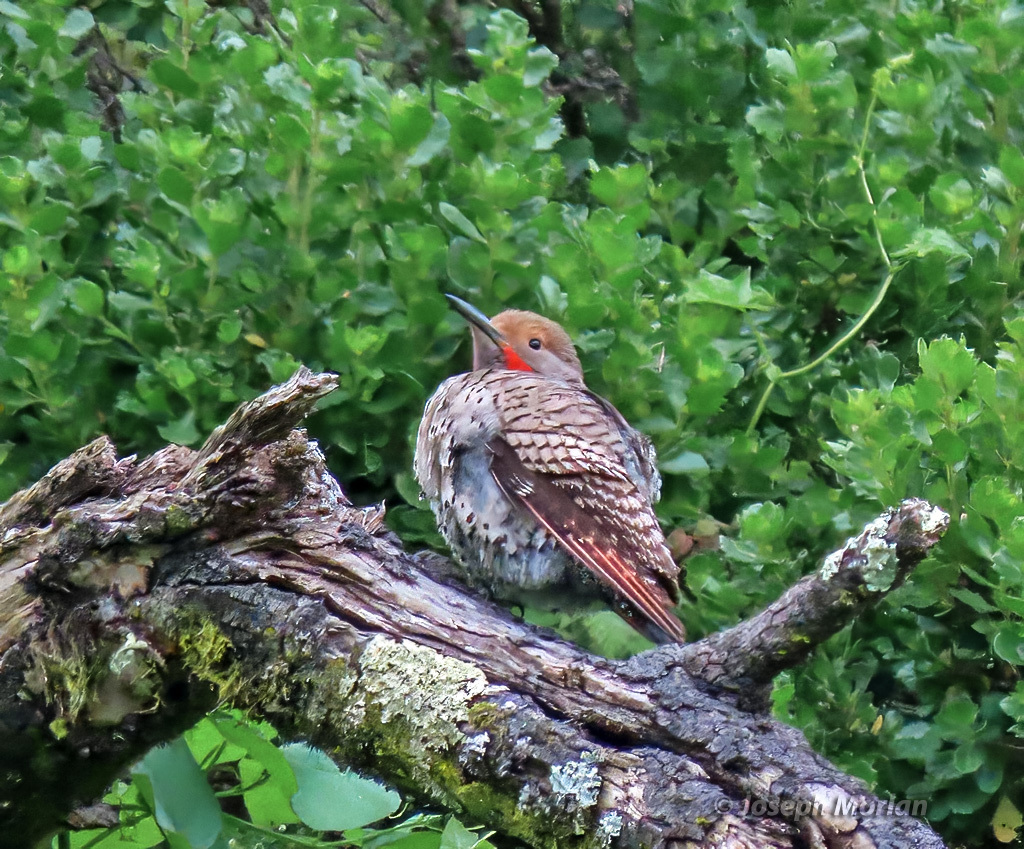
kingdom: Animalia
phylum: Chordata
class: Aves
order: Piciformes
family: Picidae
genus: Colaptes
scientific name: Colaptes auratus
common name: Northern flicker
